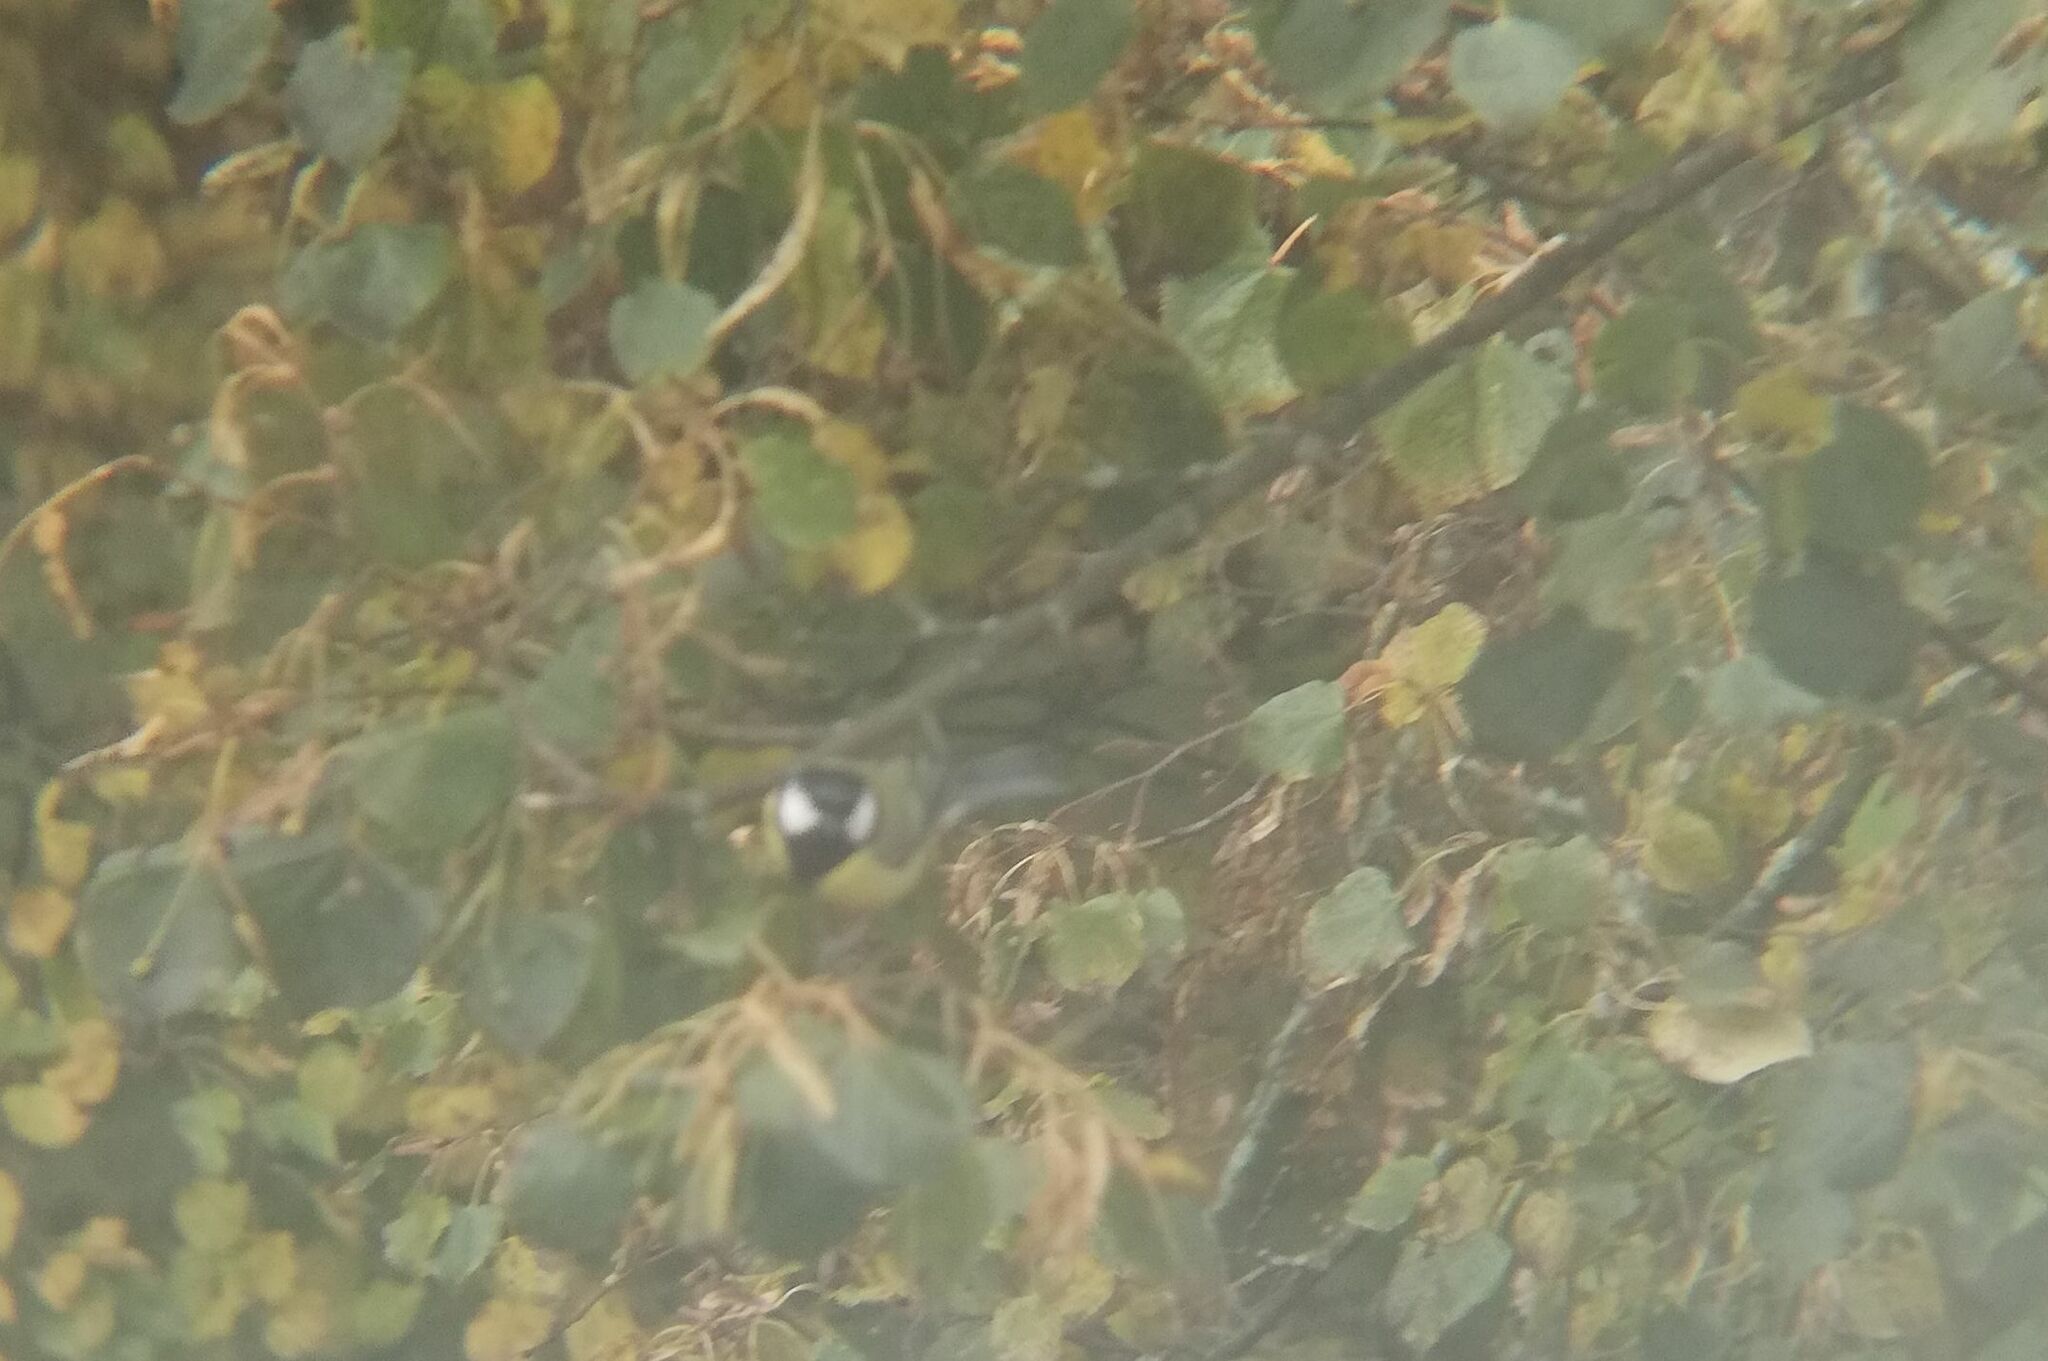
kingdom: Animalia
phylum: Chordata
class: Aves
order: Passeriformes
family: Paridae
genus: Parus
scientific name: Parus major
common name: Great tit
